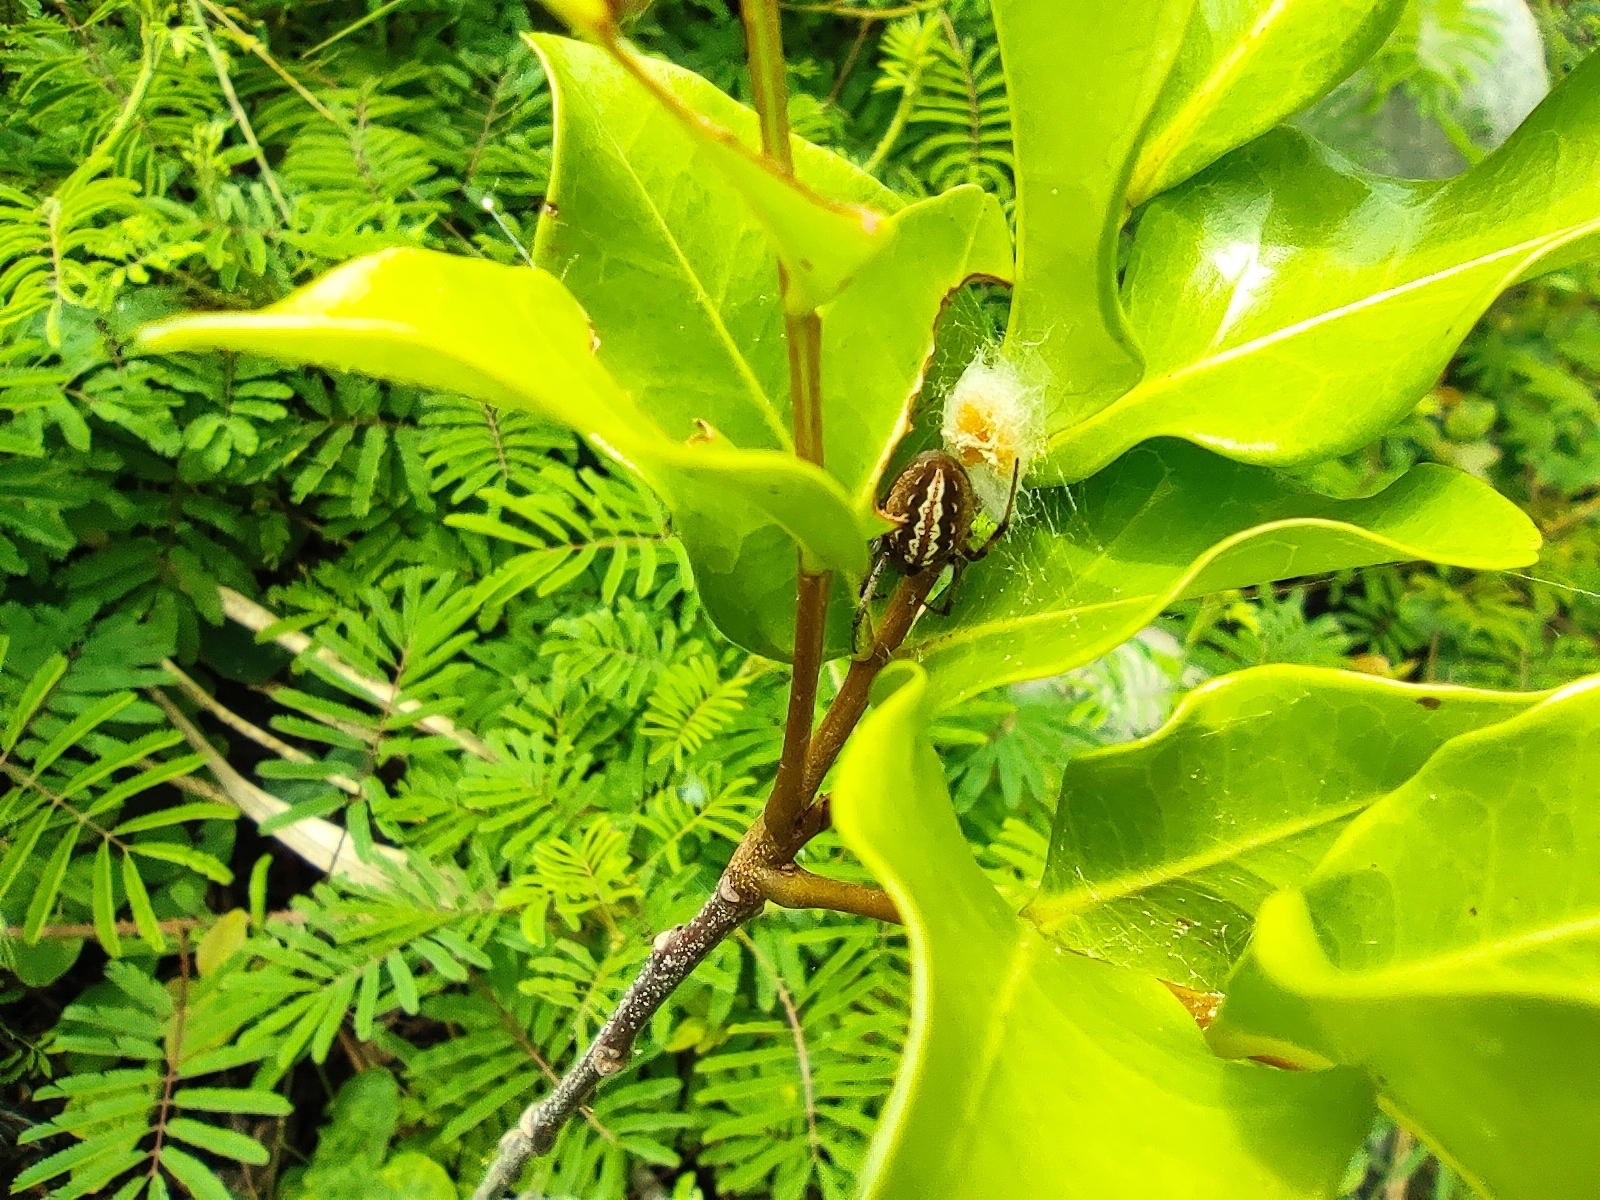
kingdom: Animalia
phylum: Arthropoda
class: Arachnida
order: Araneae
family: Araneidae
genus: Neoscona
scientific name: Neoscona moreli
